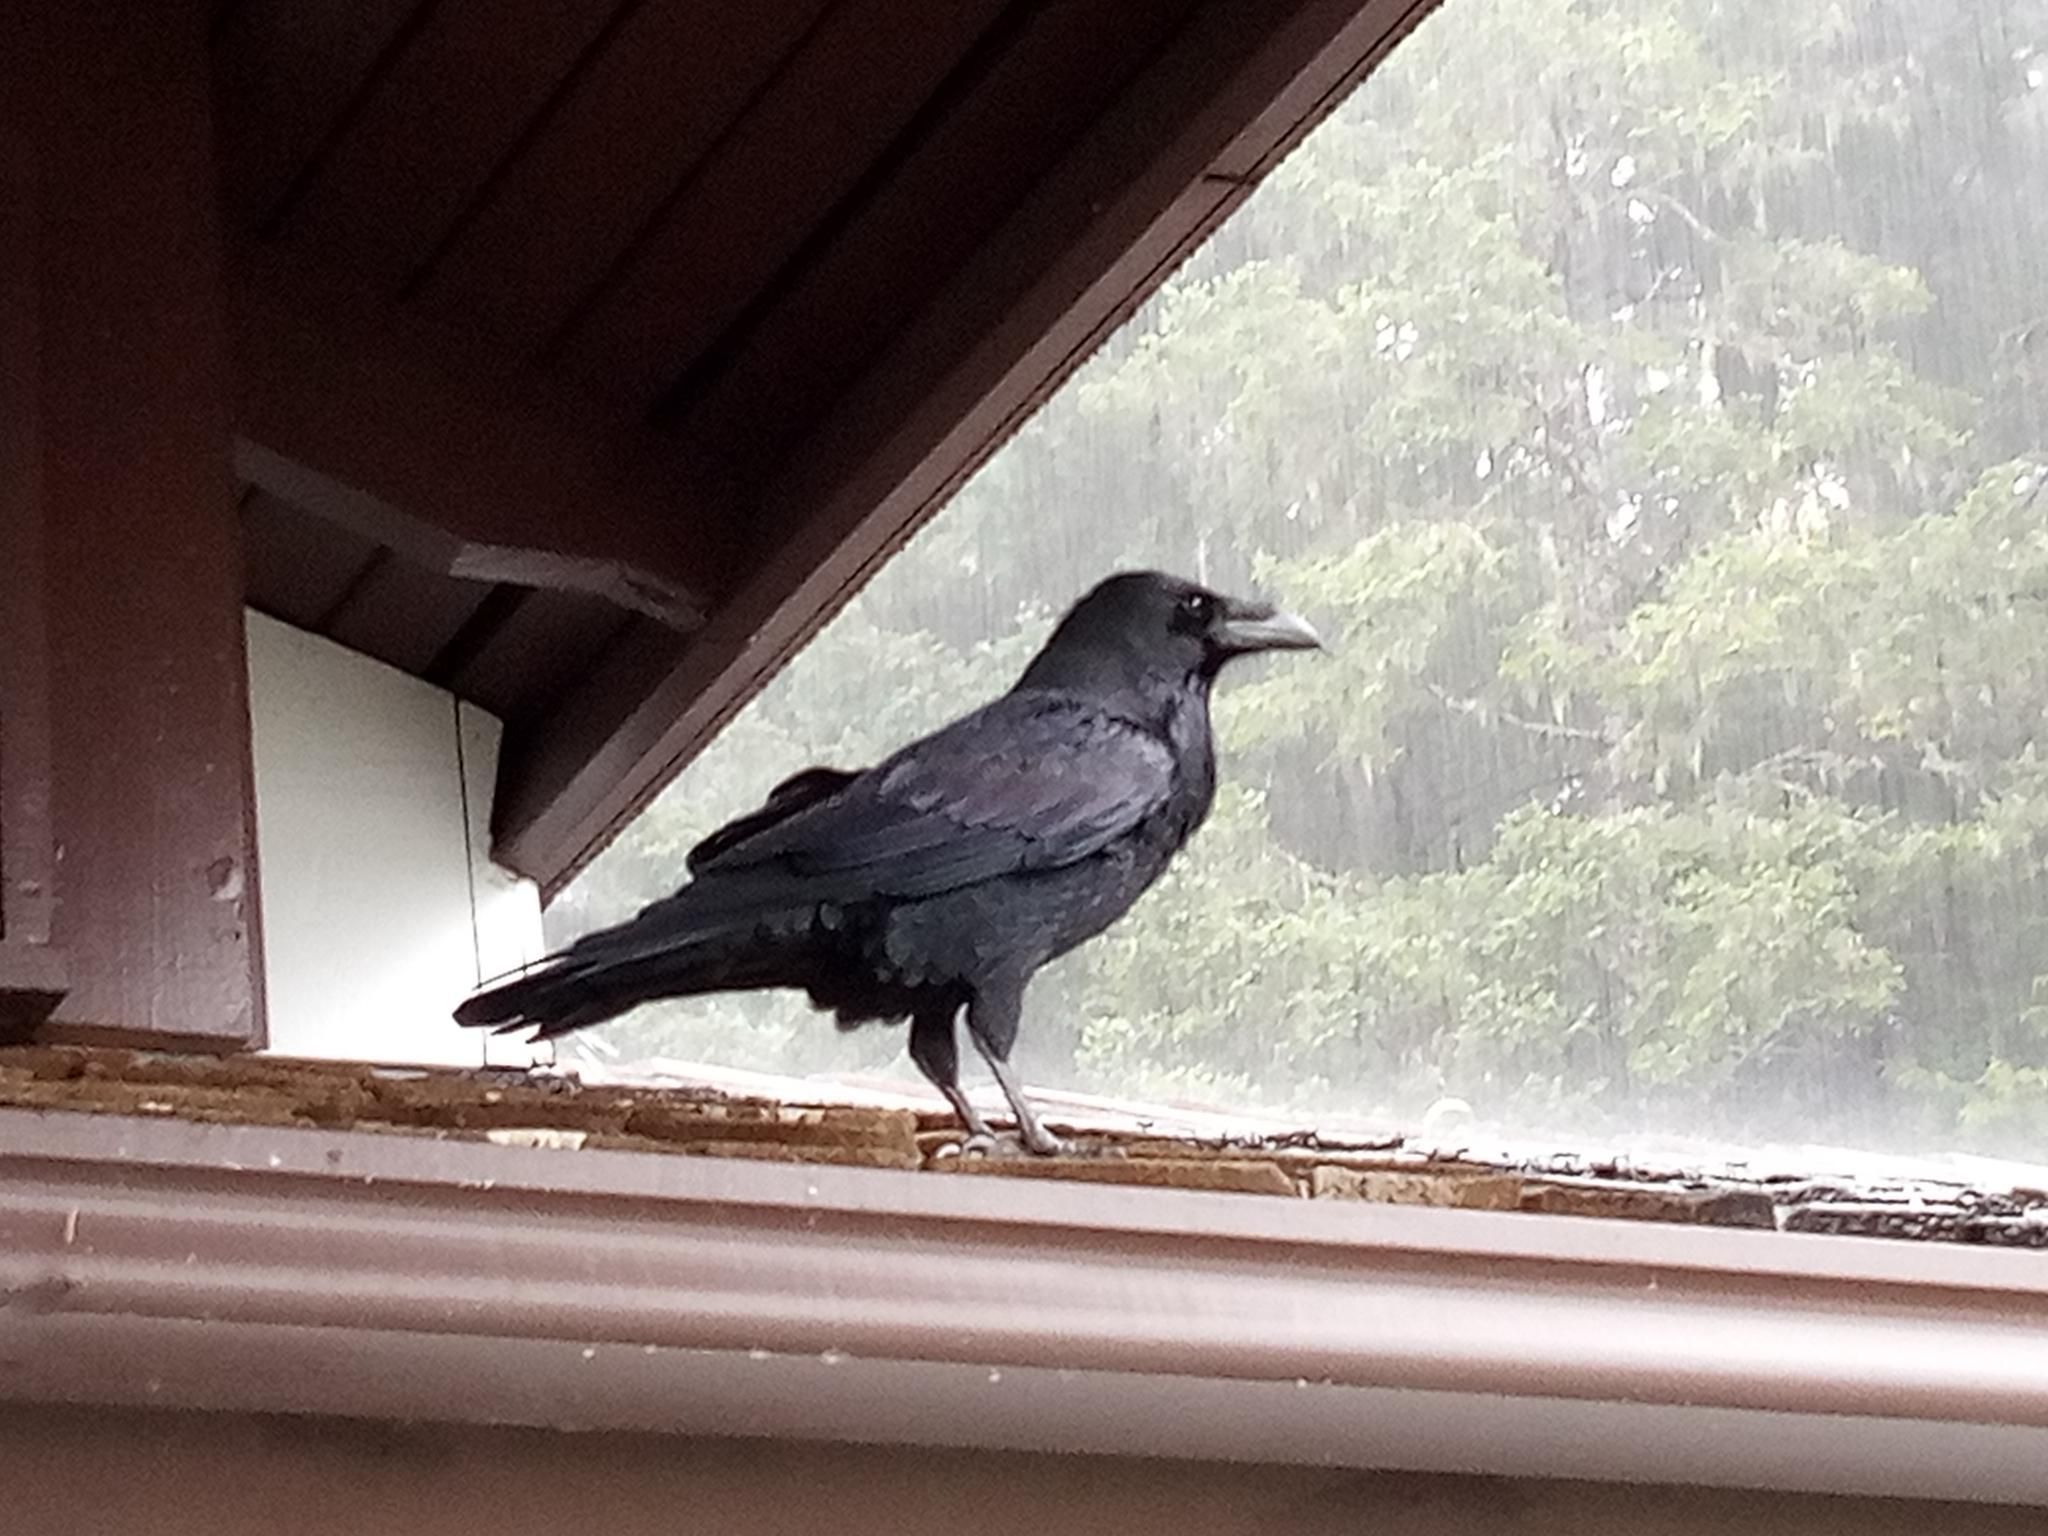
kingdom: Animalia
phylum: Chordata
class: Aves
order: Passeriformes
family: Corvidae
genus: Corvus
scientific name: Corvus corax
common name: Common raven
